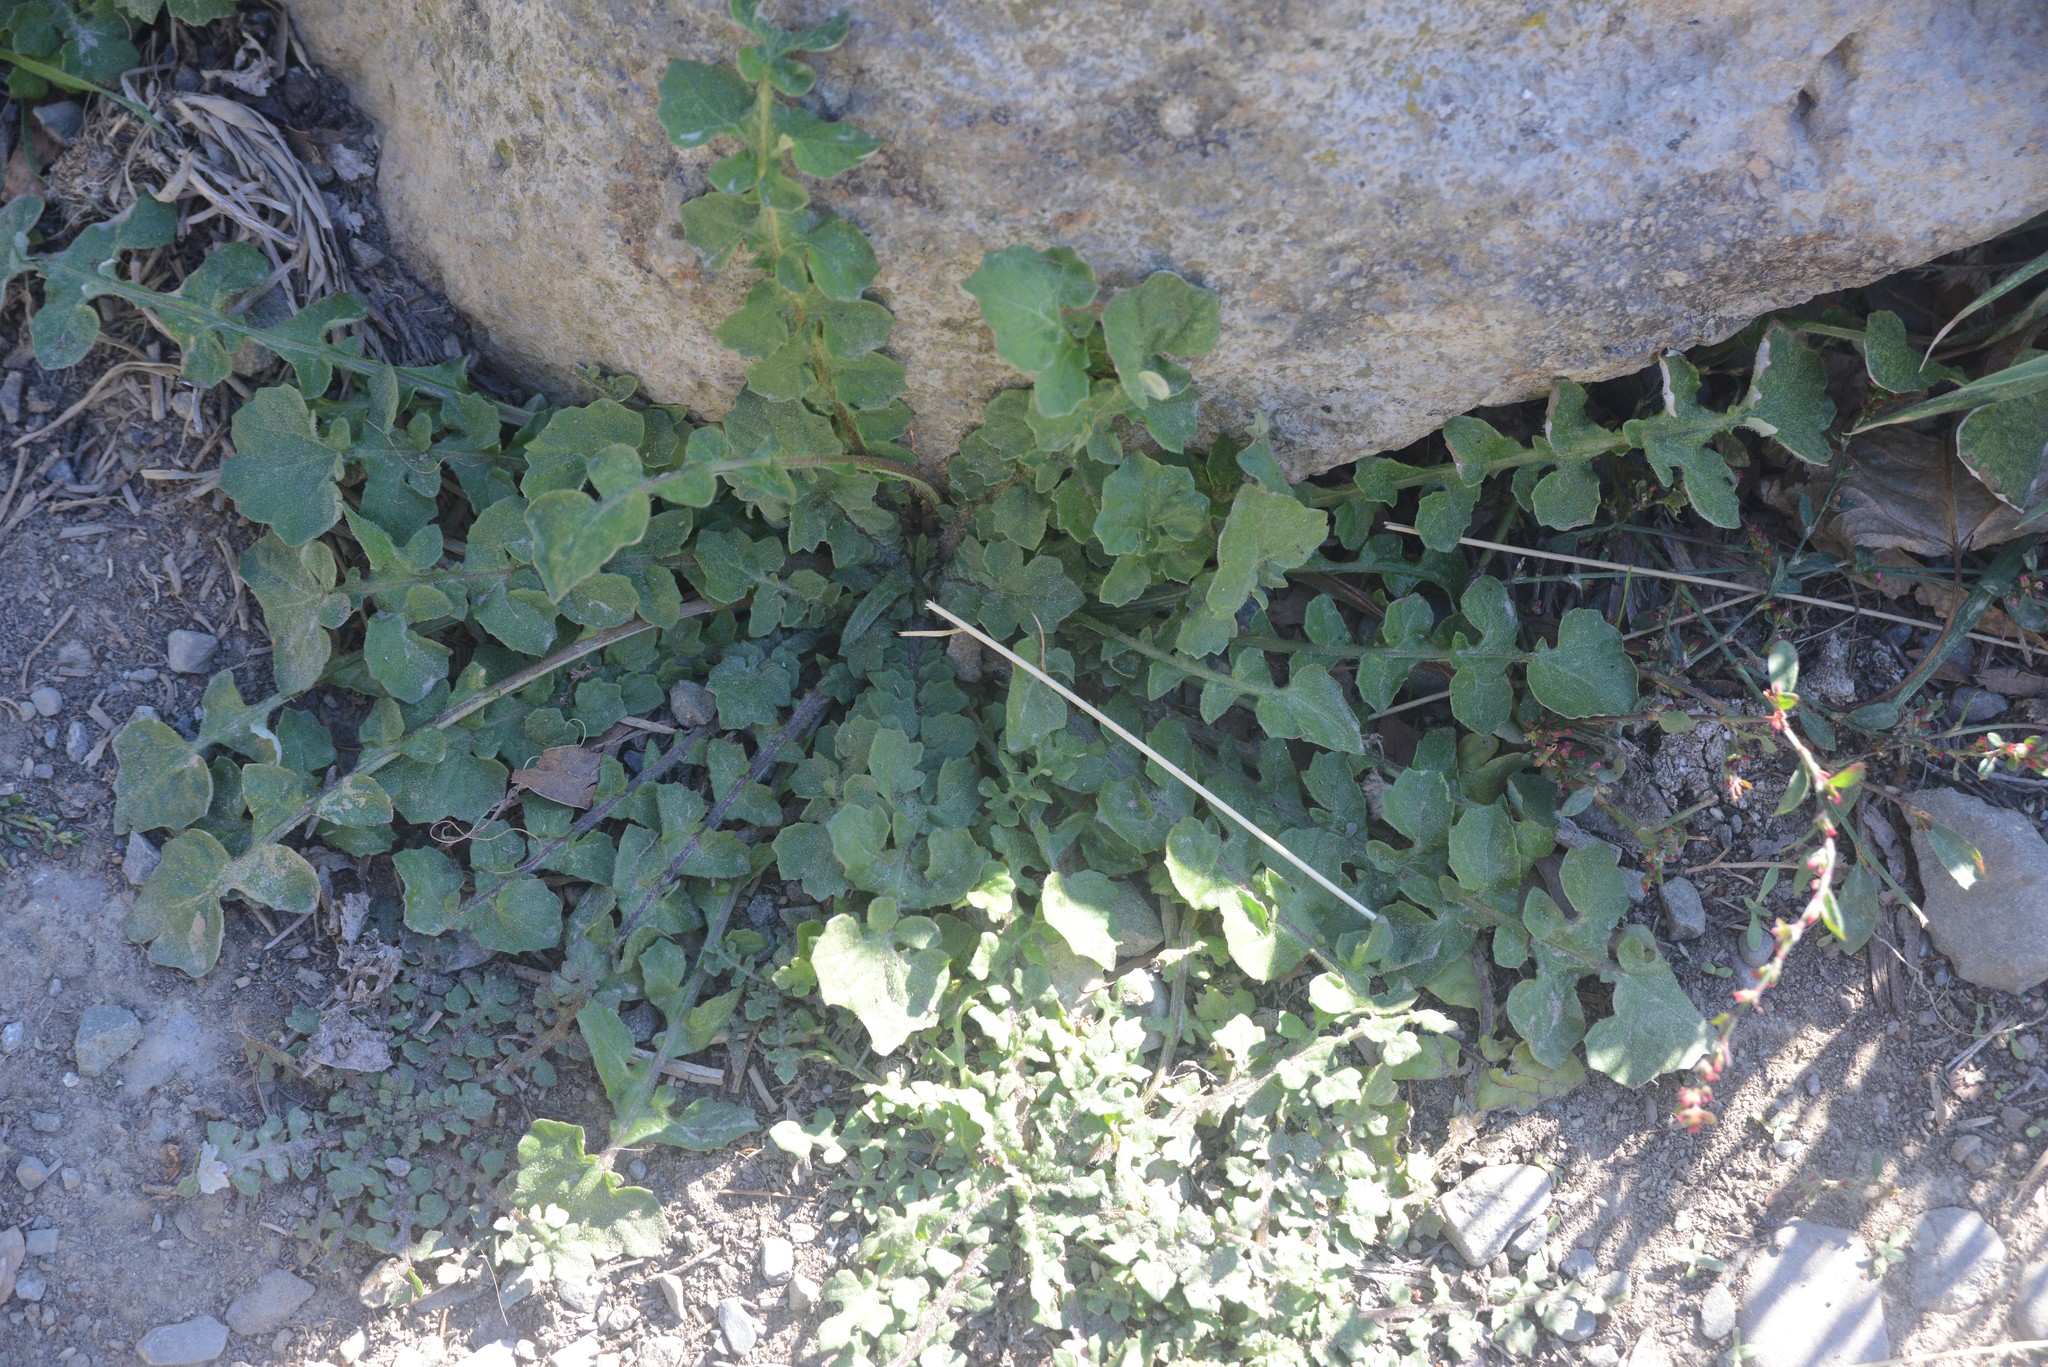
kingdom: Plantae
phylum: Tracheophyta
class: Magnoliopsida
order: Asterales
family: Asteraceae
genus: Arctotheca
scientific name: Arctotheca calendula
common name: Capeweed
